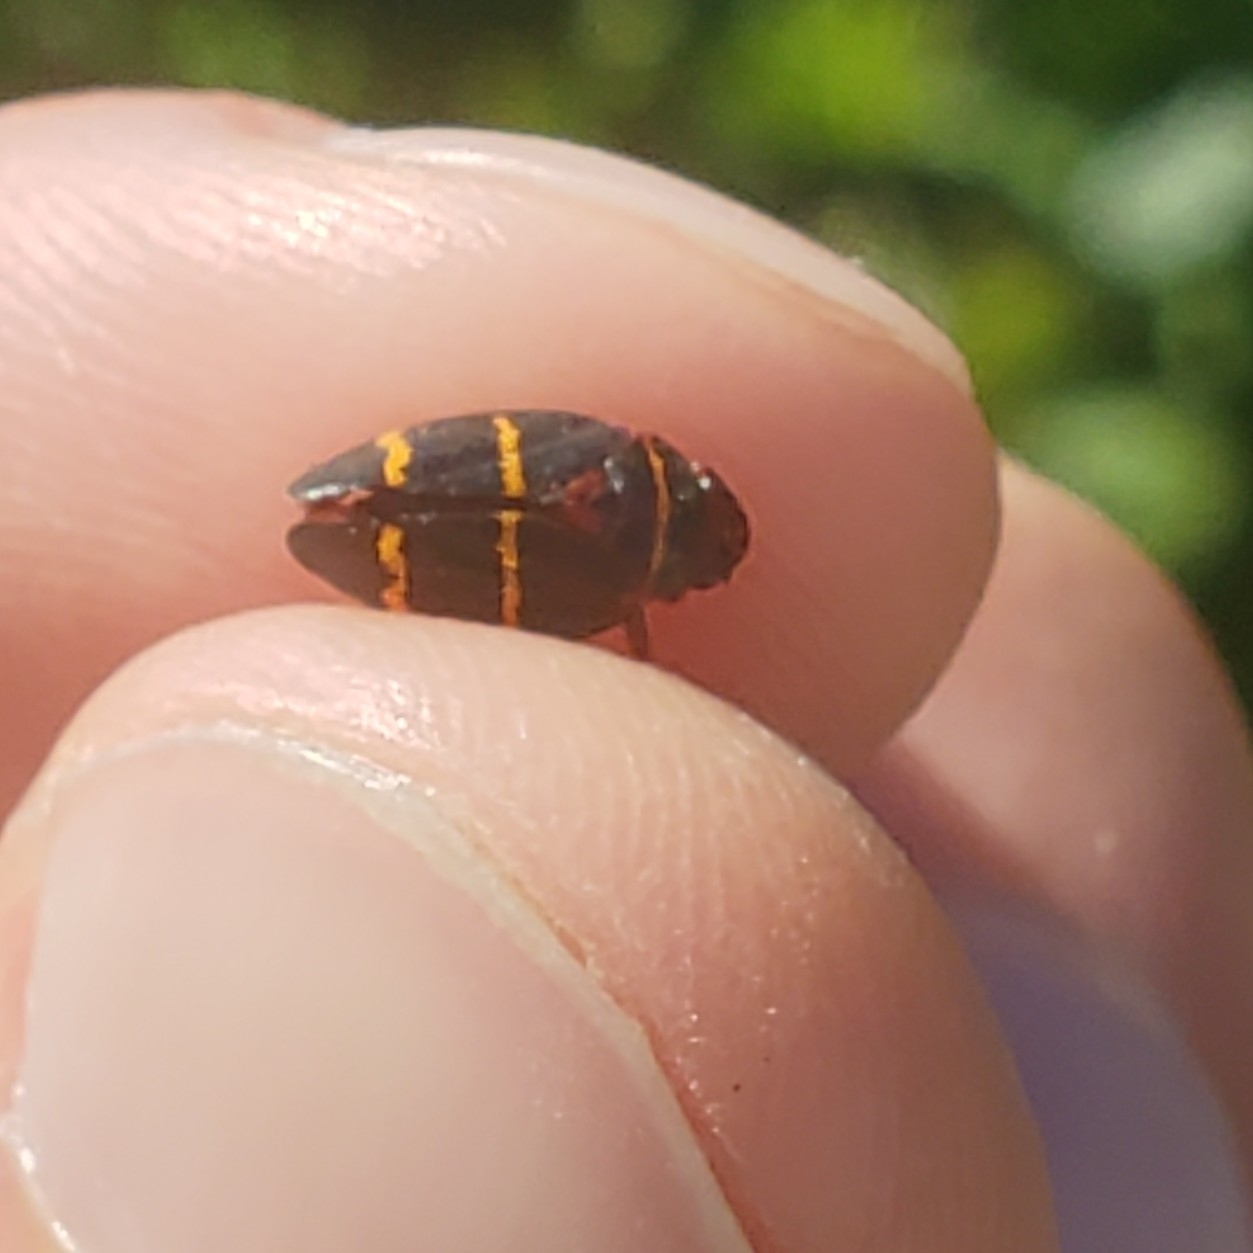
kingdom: Animalia
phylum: Arthropoda
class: Insecta
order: Hemiptera
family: Cercopidae
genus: Prosapia
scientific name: Prosapia bicincta
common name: Twolined spittlebug
